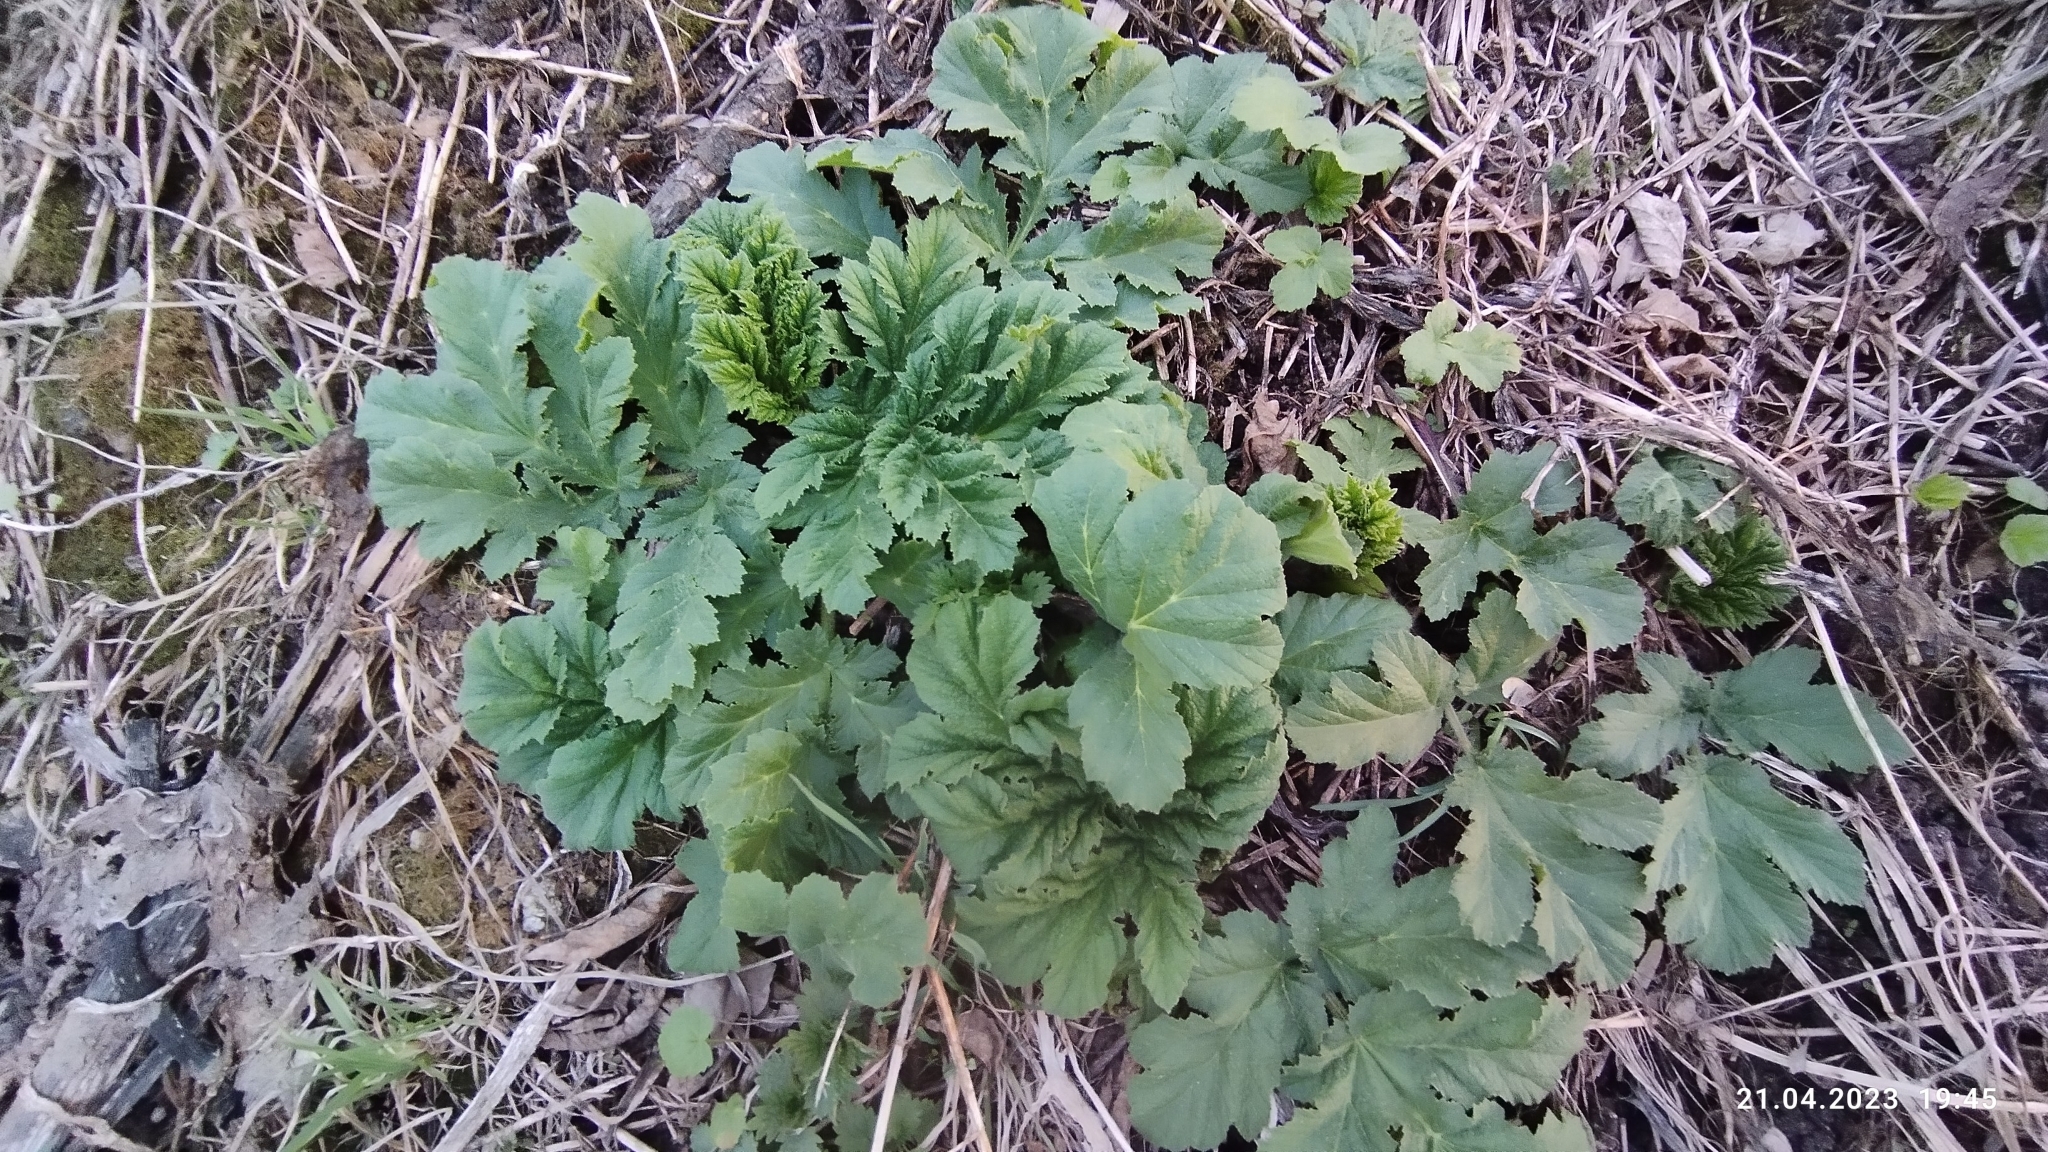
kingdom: Plantae
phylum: Tracheophyta
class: Magnoliopsida
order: Apiales
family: Apiaceae
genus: Heracleum
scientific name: Heracleum sosnowskyi
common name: Sosnowsky's hogweed
